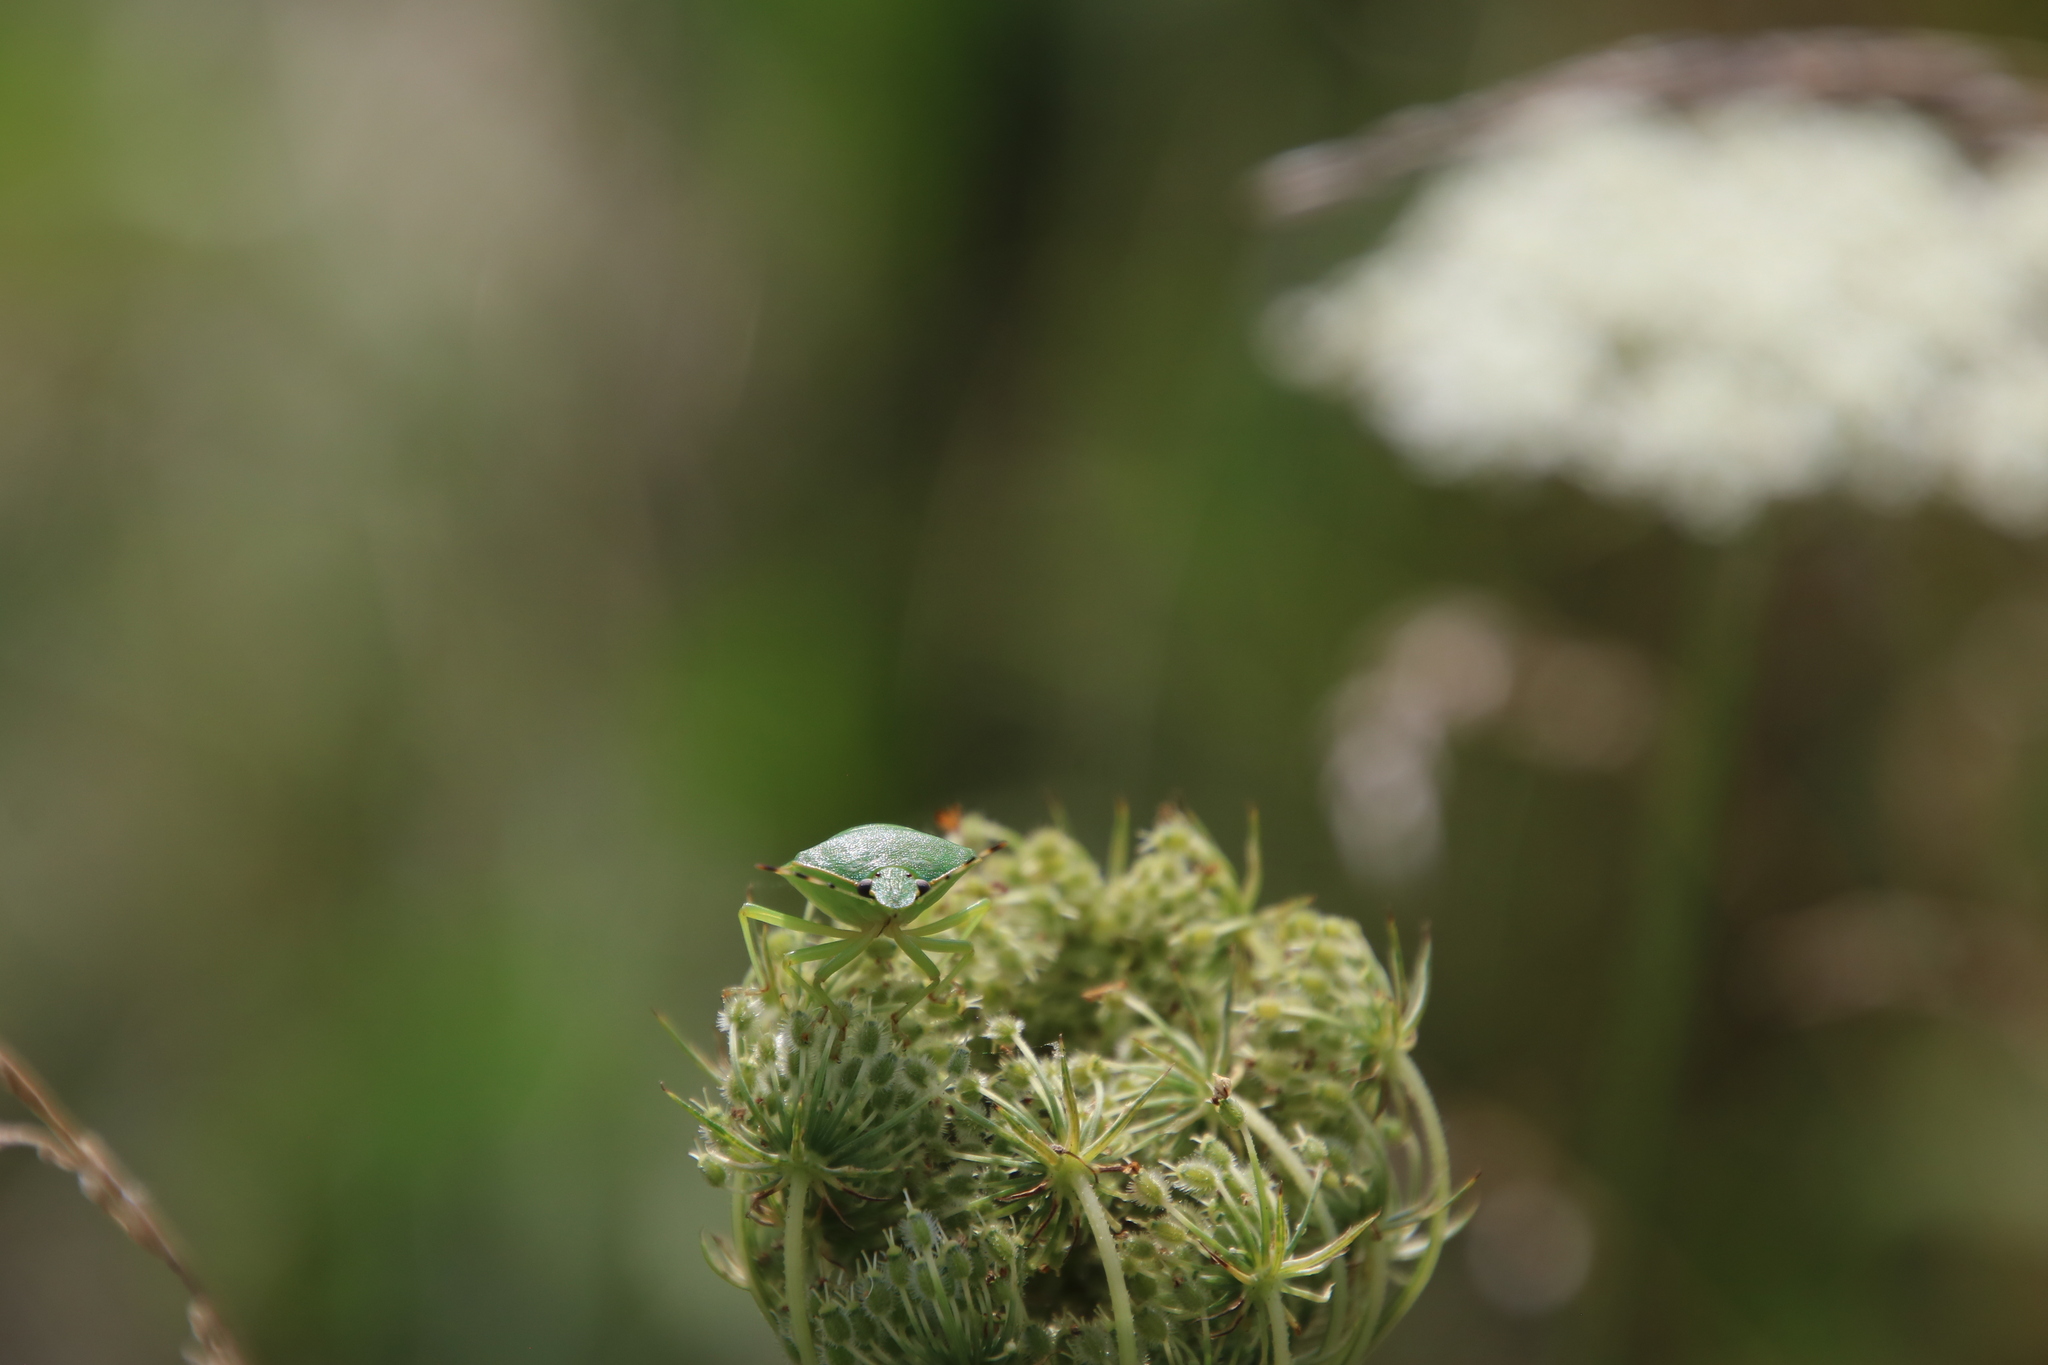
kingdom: Animalia
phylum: Arthropoda
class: Insecta
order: Hemiptera
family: Pentatomidae
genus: Chinavia
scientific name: Chinavia hilaris
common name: Green stink bug
